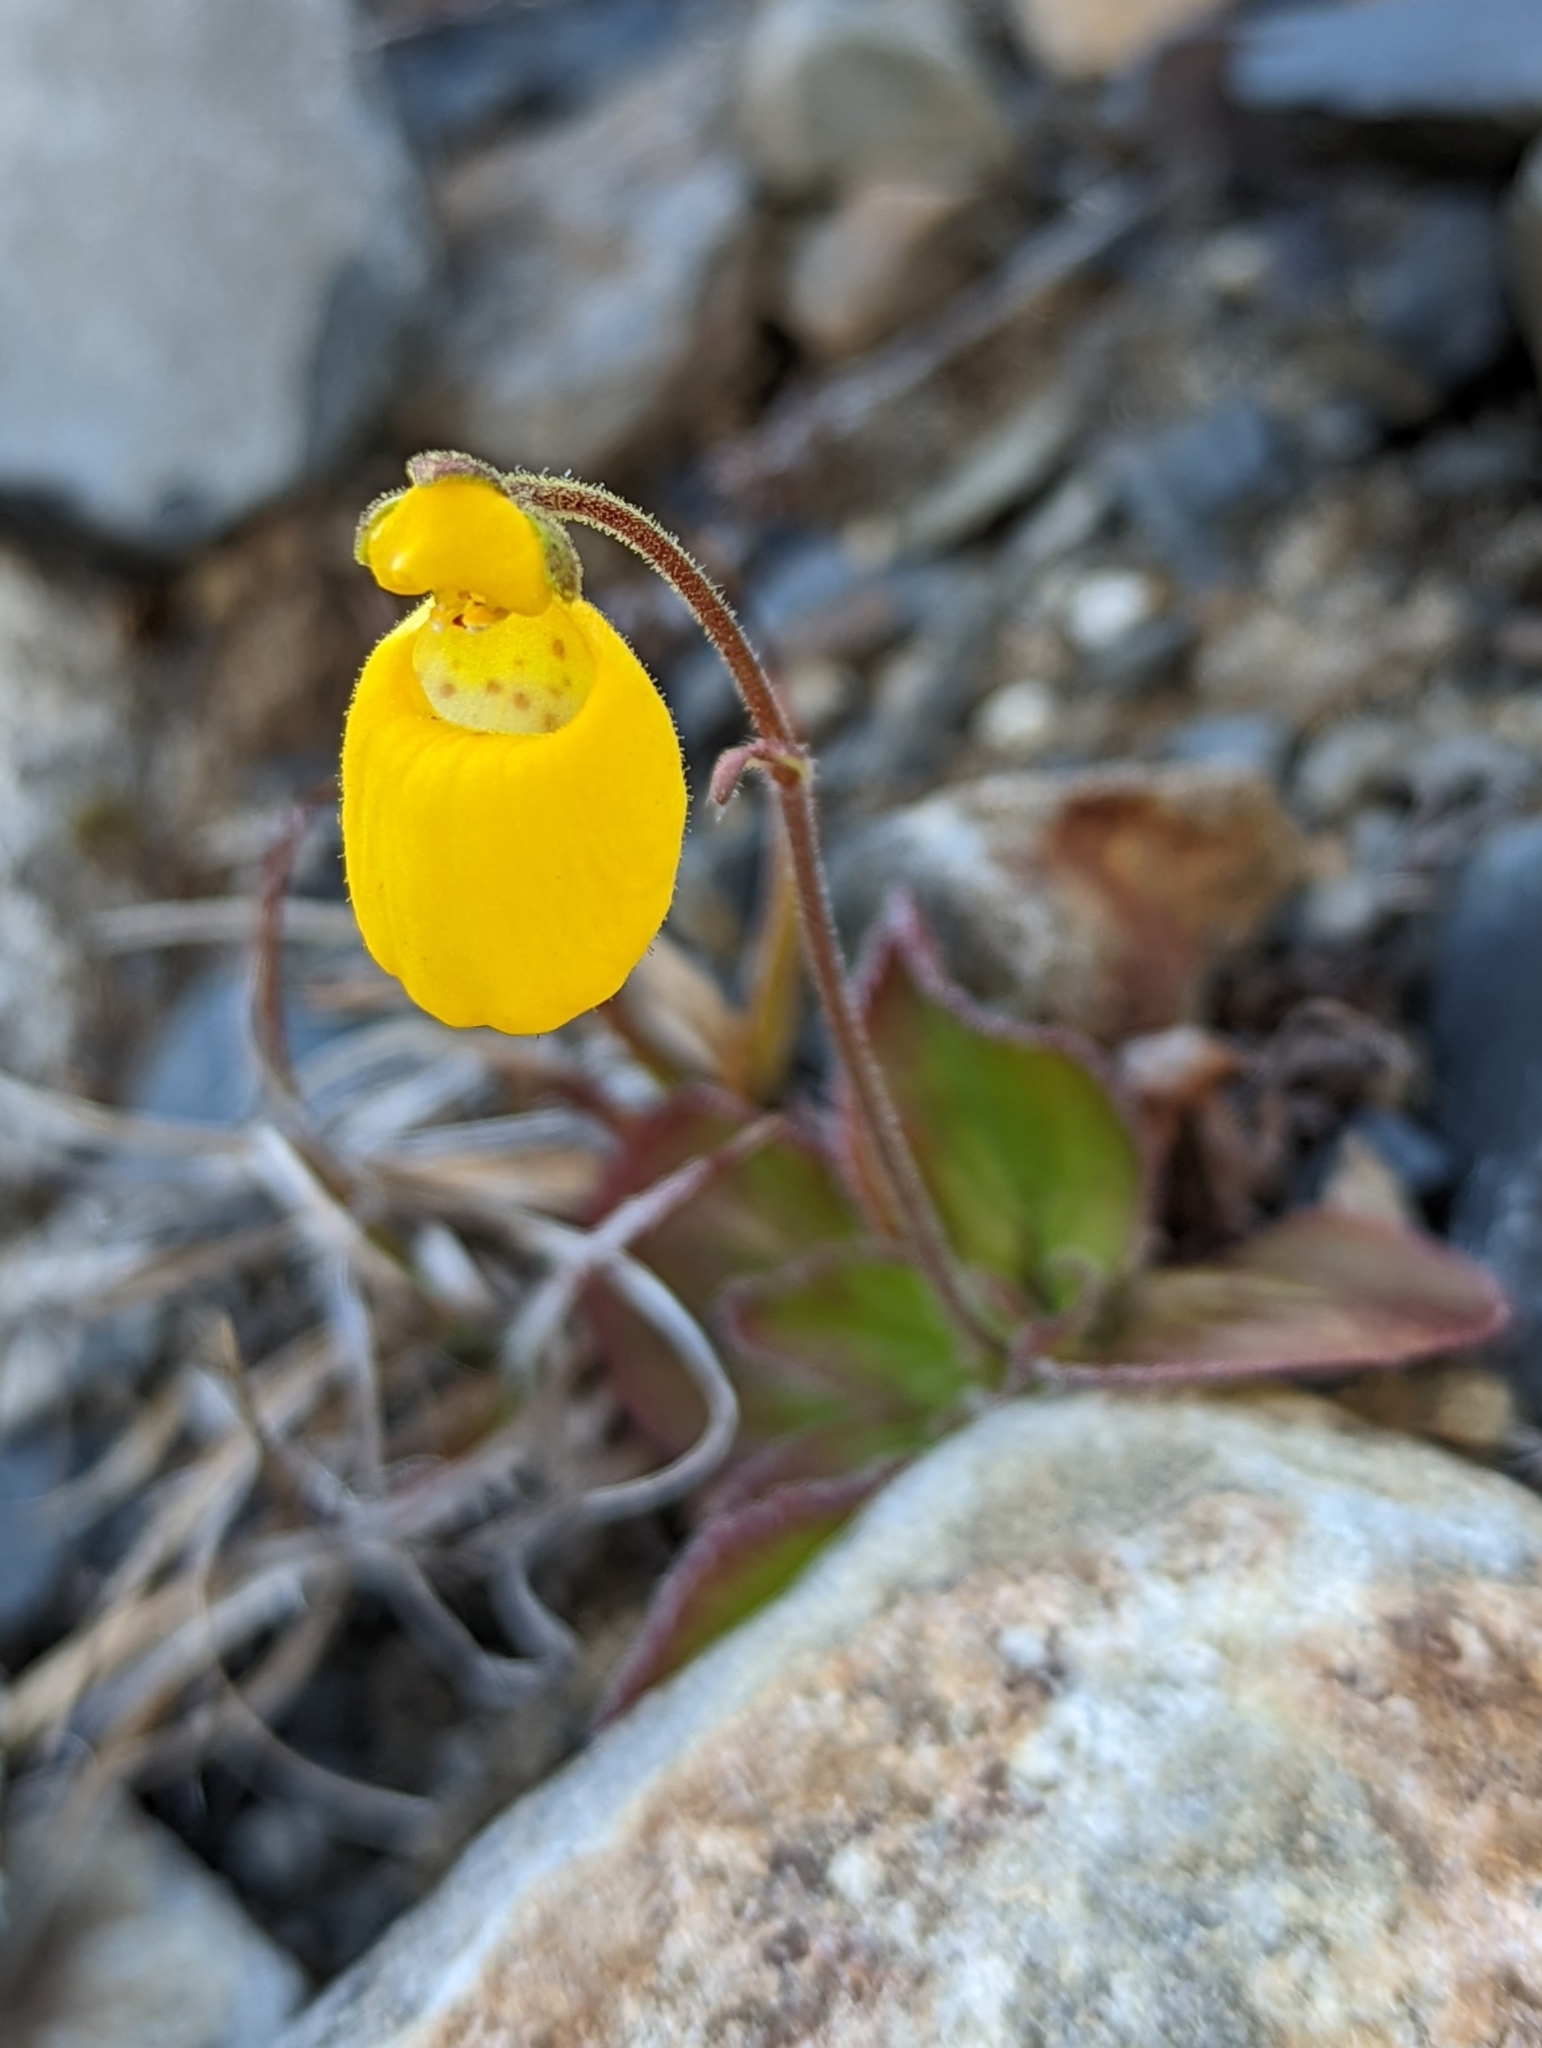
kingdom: Plantae
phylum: Tracheophyta
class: Magnoliopsida
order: Lamiales
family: Calceolariaceae
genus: Calceolaria
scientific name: Calceolaria biflora
